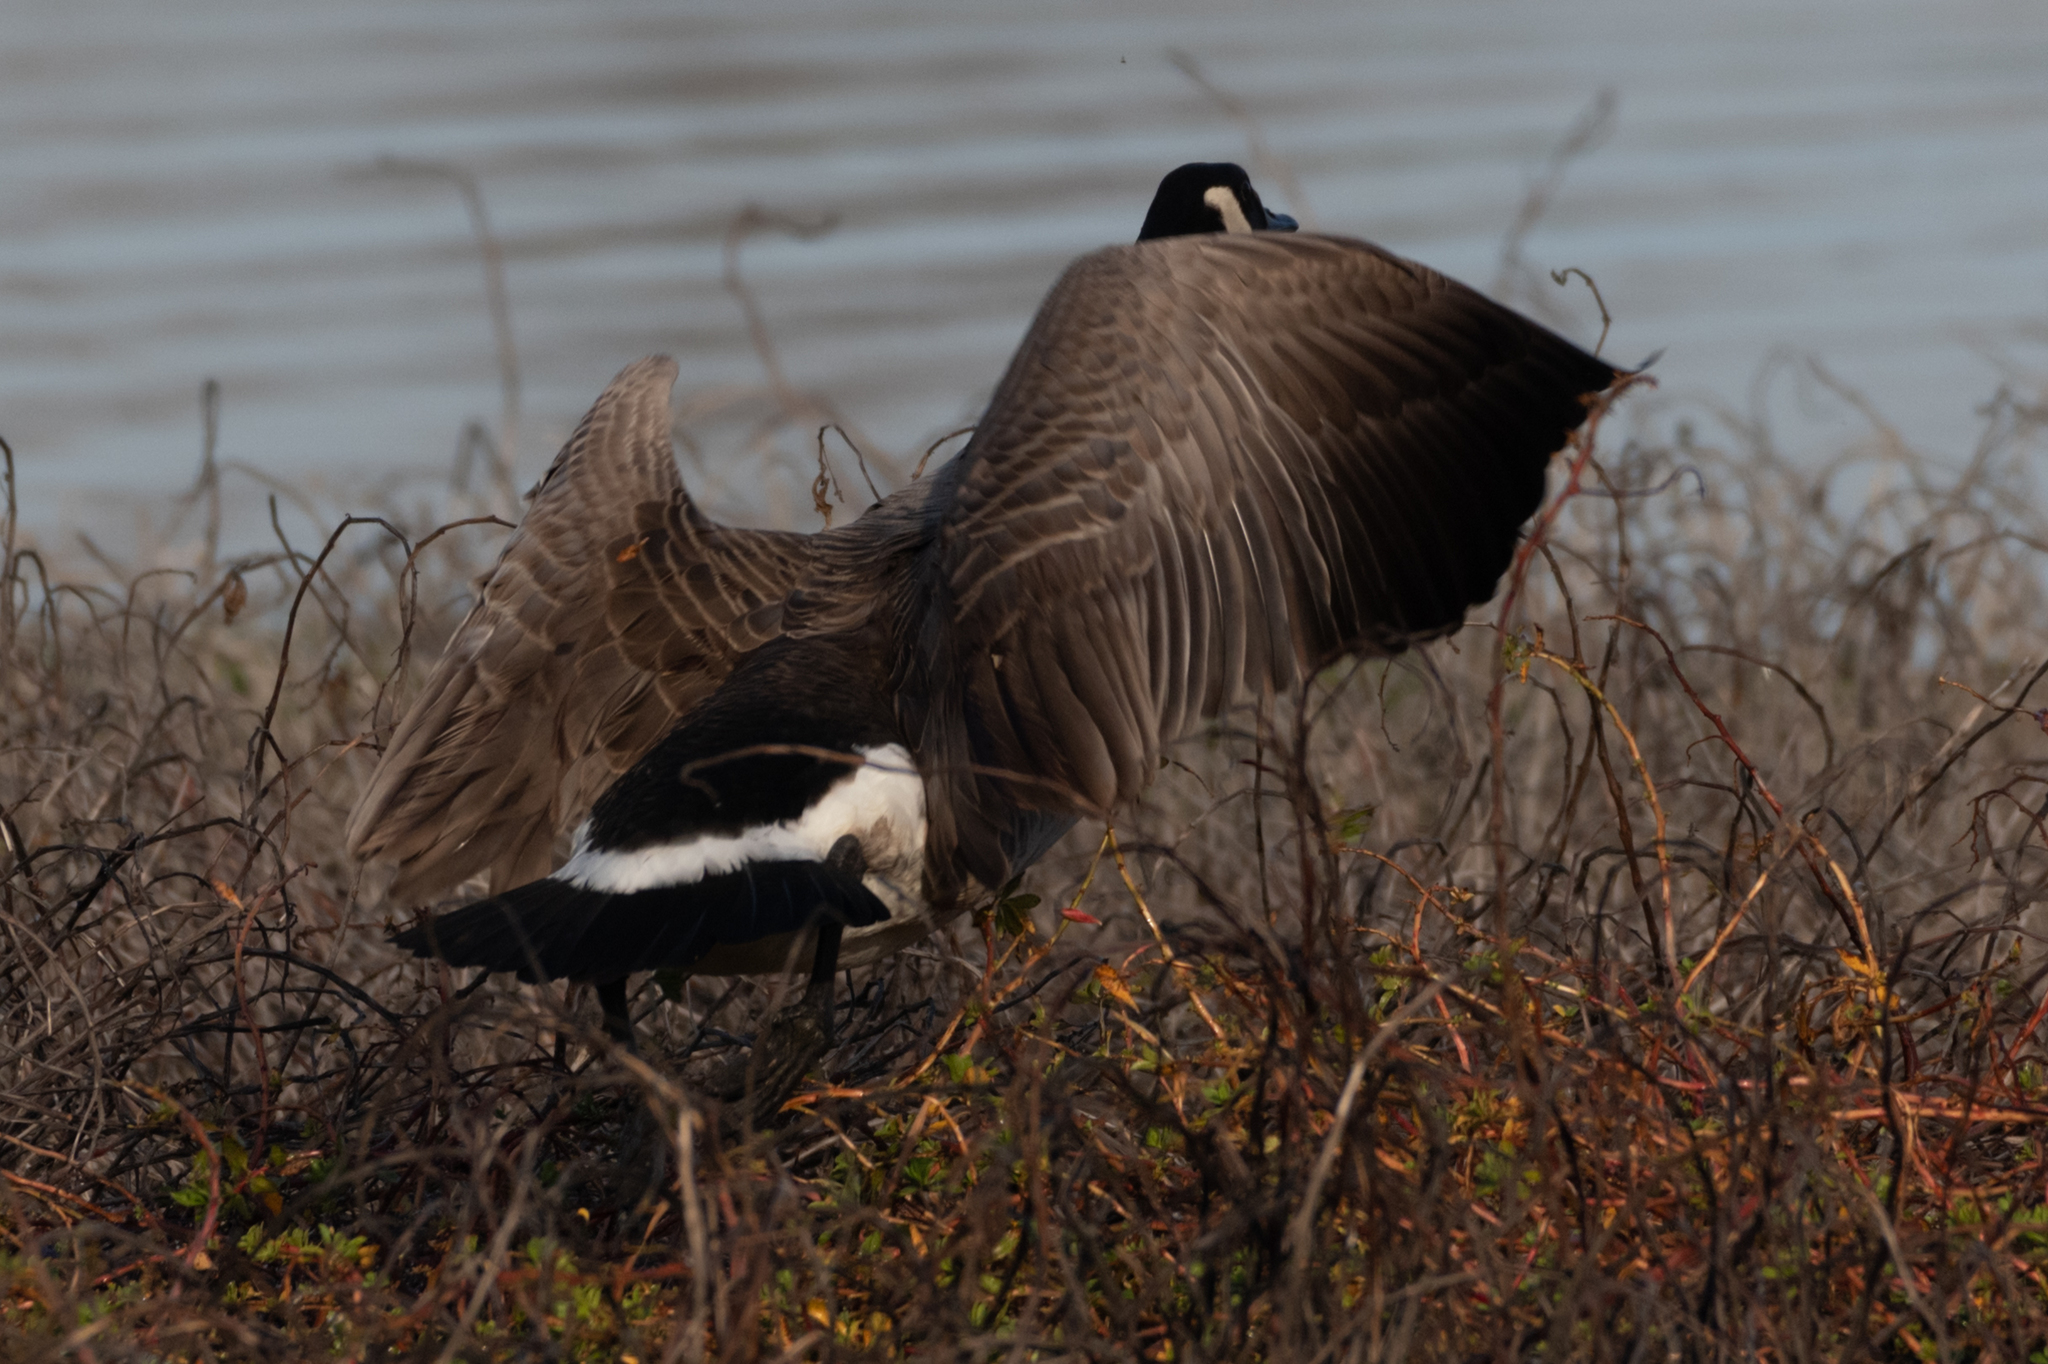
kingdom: Animalia
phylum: Chordata
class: Aves
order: Anseriformes
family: Anatidae
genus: Branta
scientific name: Branta canadensis
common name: Canada goose
